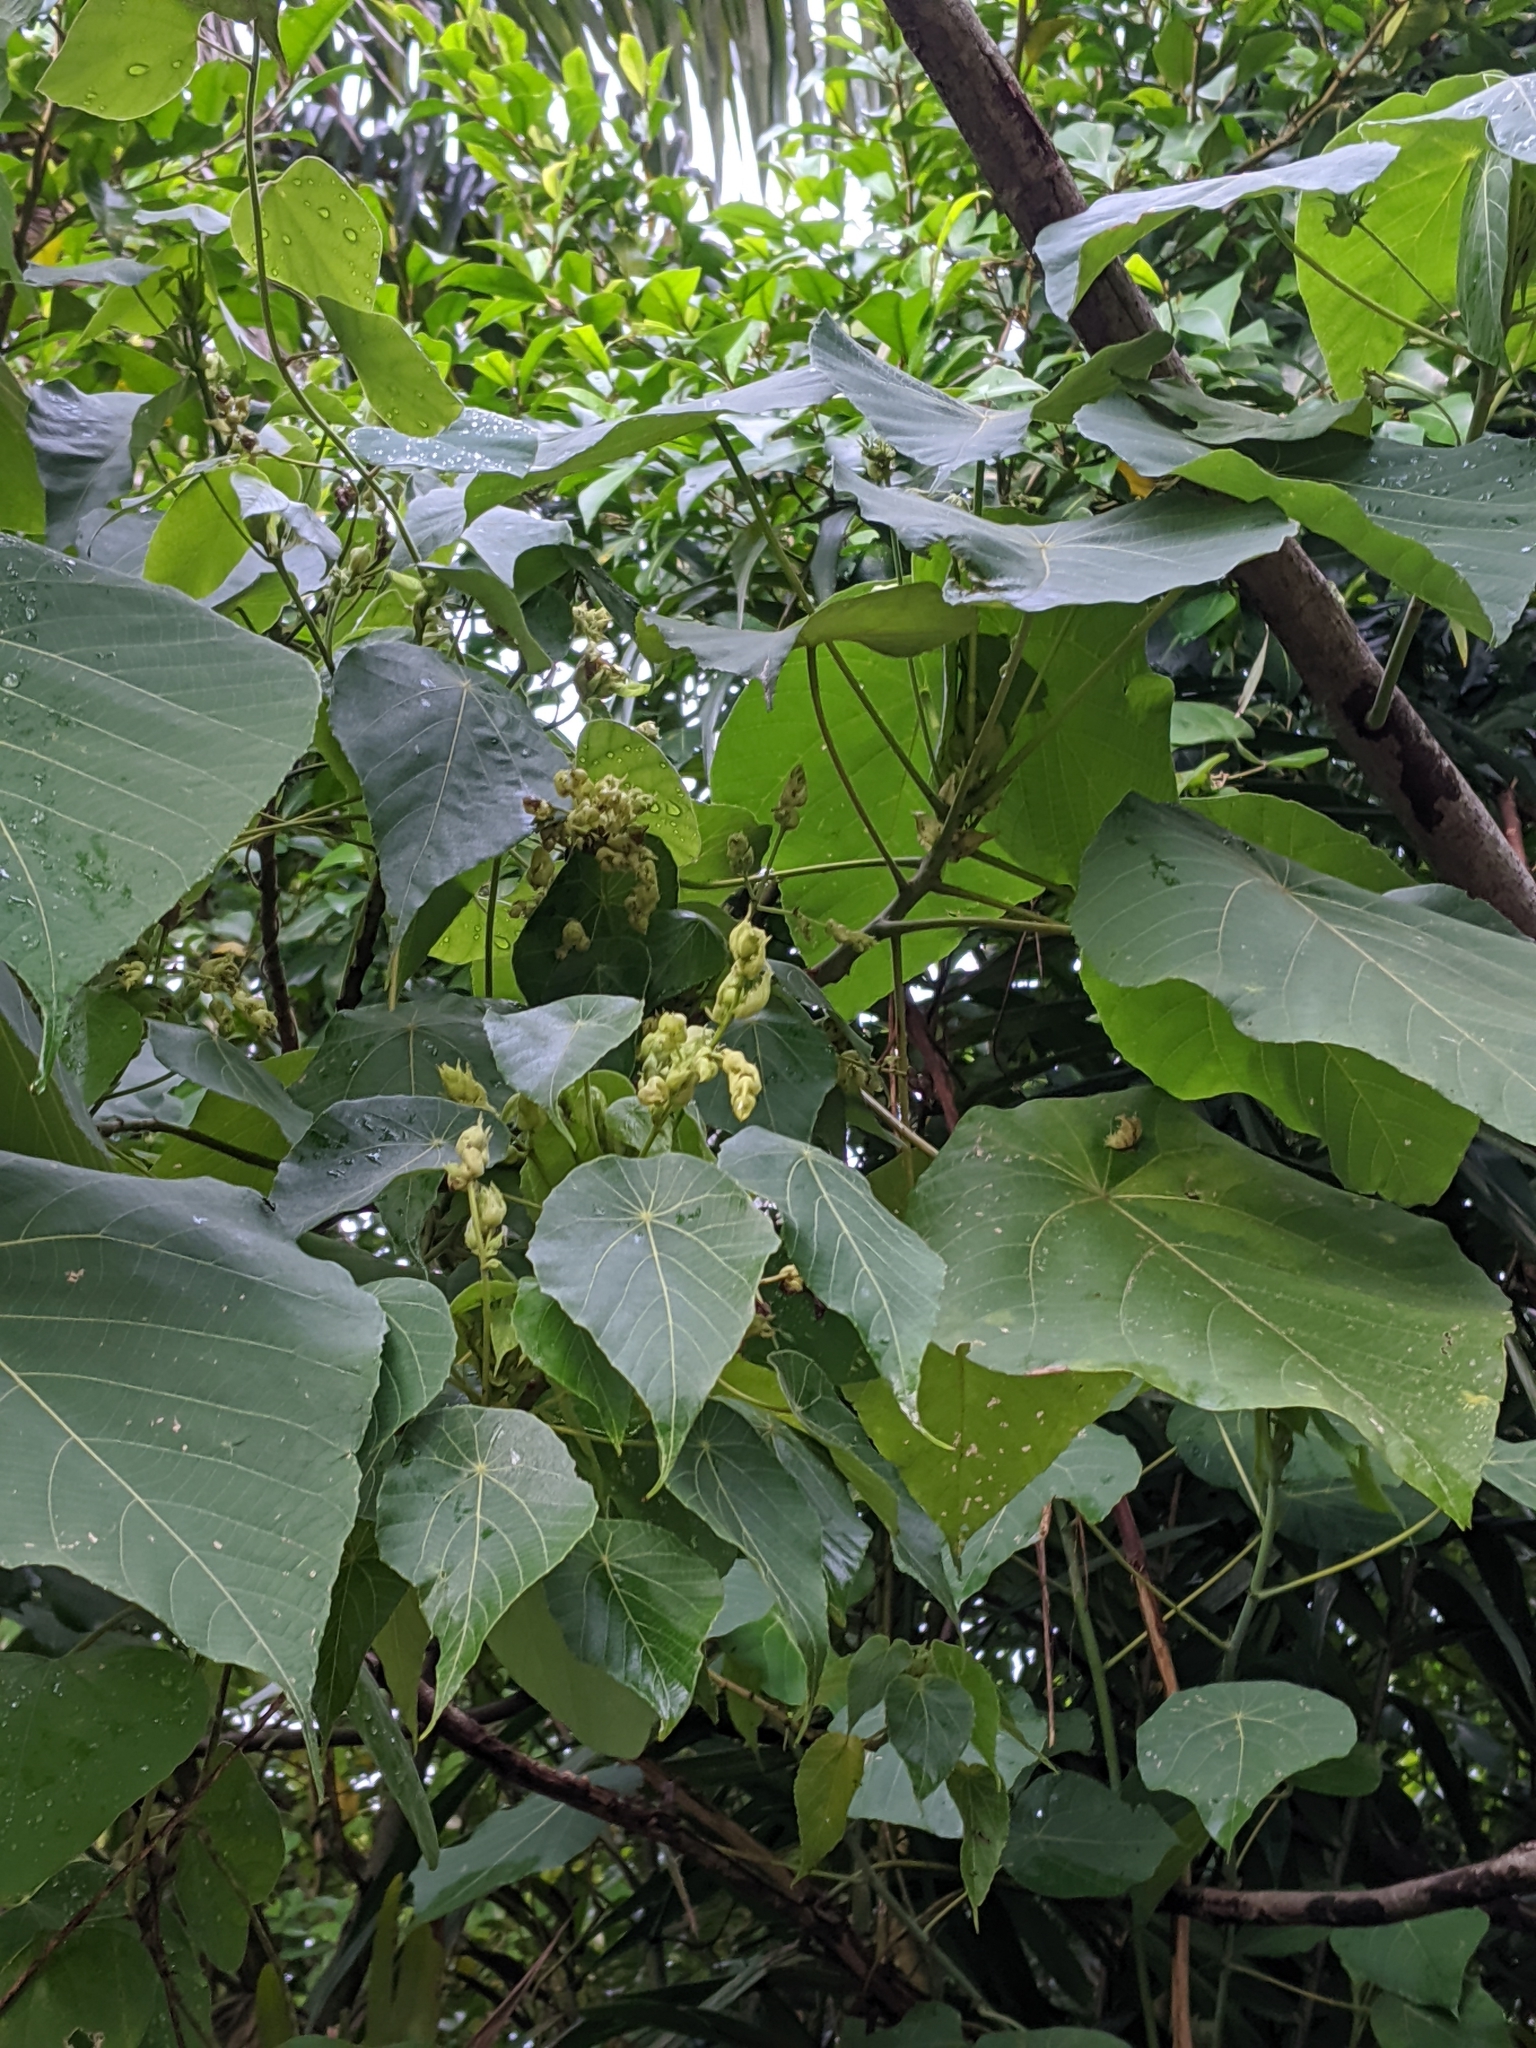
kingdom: Plantae
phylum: Tracheophyta
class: Magnoliopsida
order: Malpighiales
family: Euphorbiaceae
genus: Macaranga
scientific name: Macaranga tanarius
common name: Parasol leaf tree
